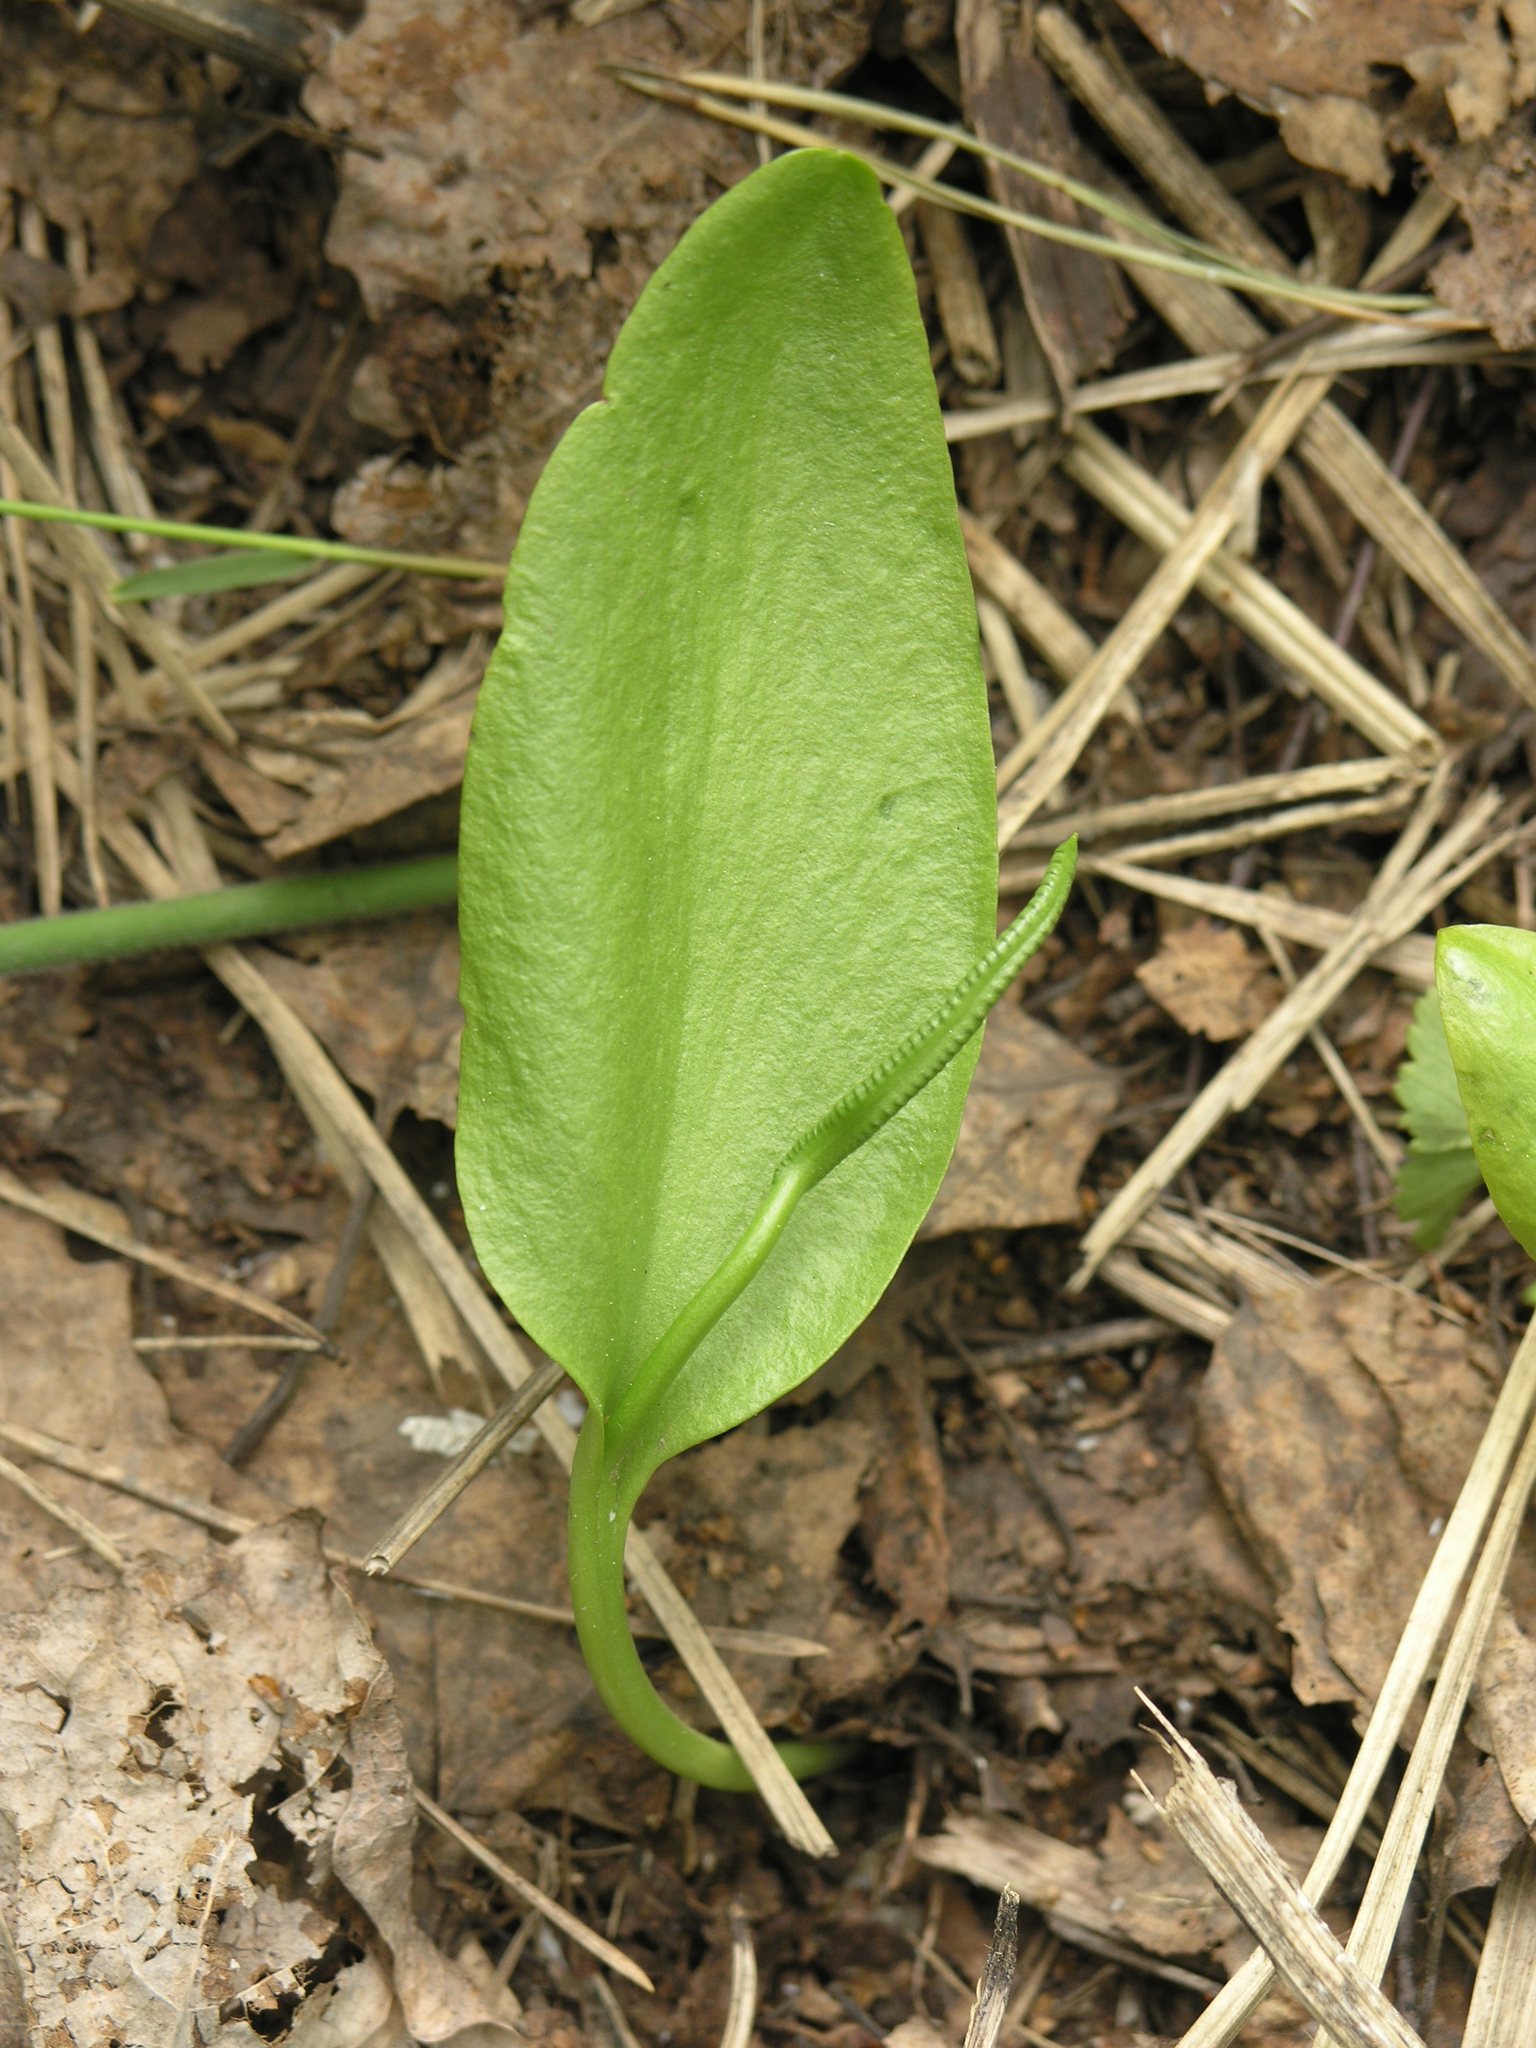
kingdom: Plantae
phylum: Tracheophyta
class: Polypodiopsida
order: Ophioglossales
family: Ophioglossaceae
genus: Ophioglossum
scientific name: Ophioglossum vulgatum
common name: Adder's-tongue
